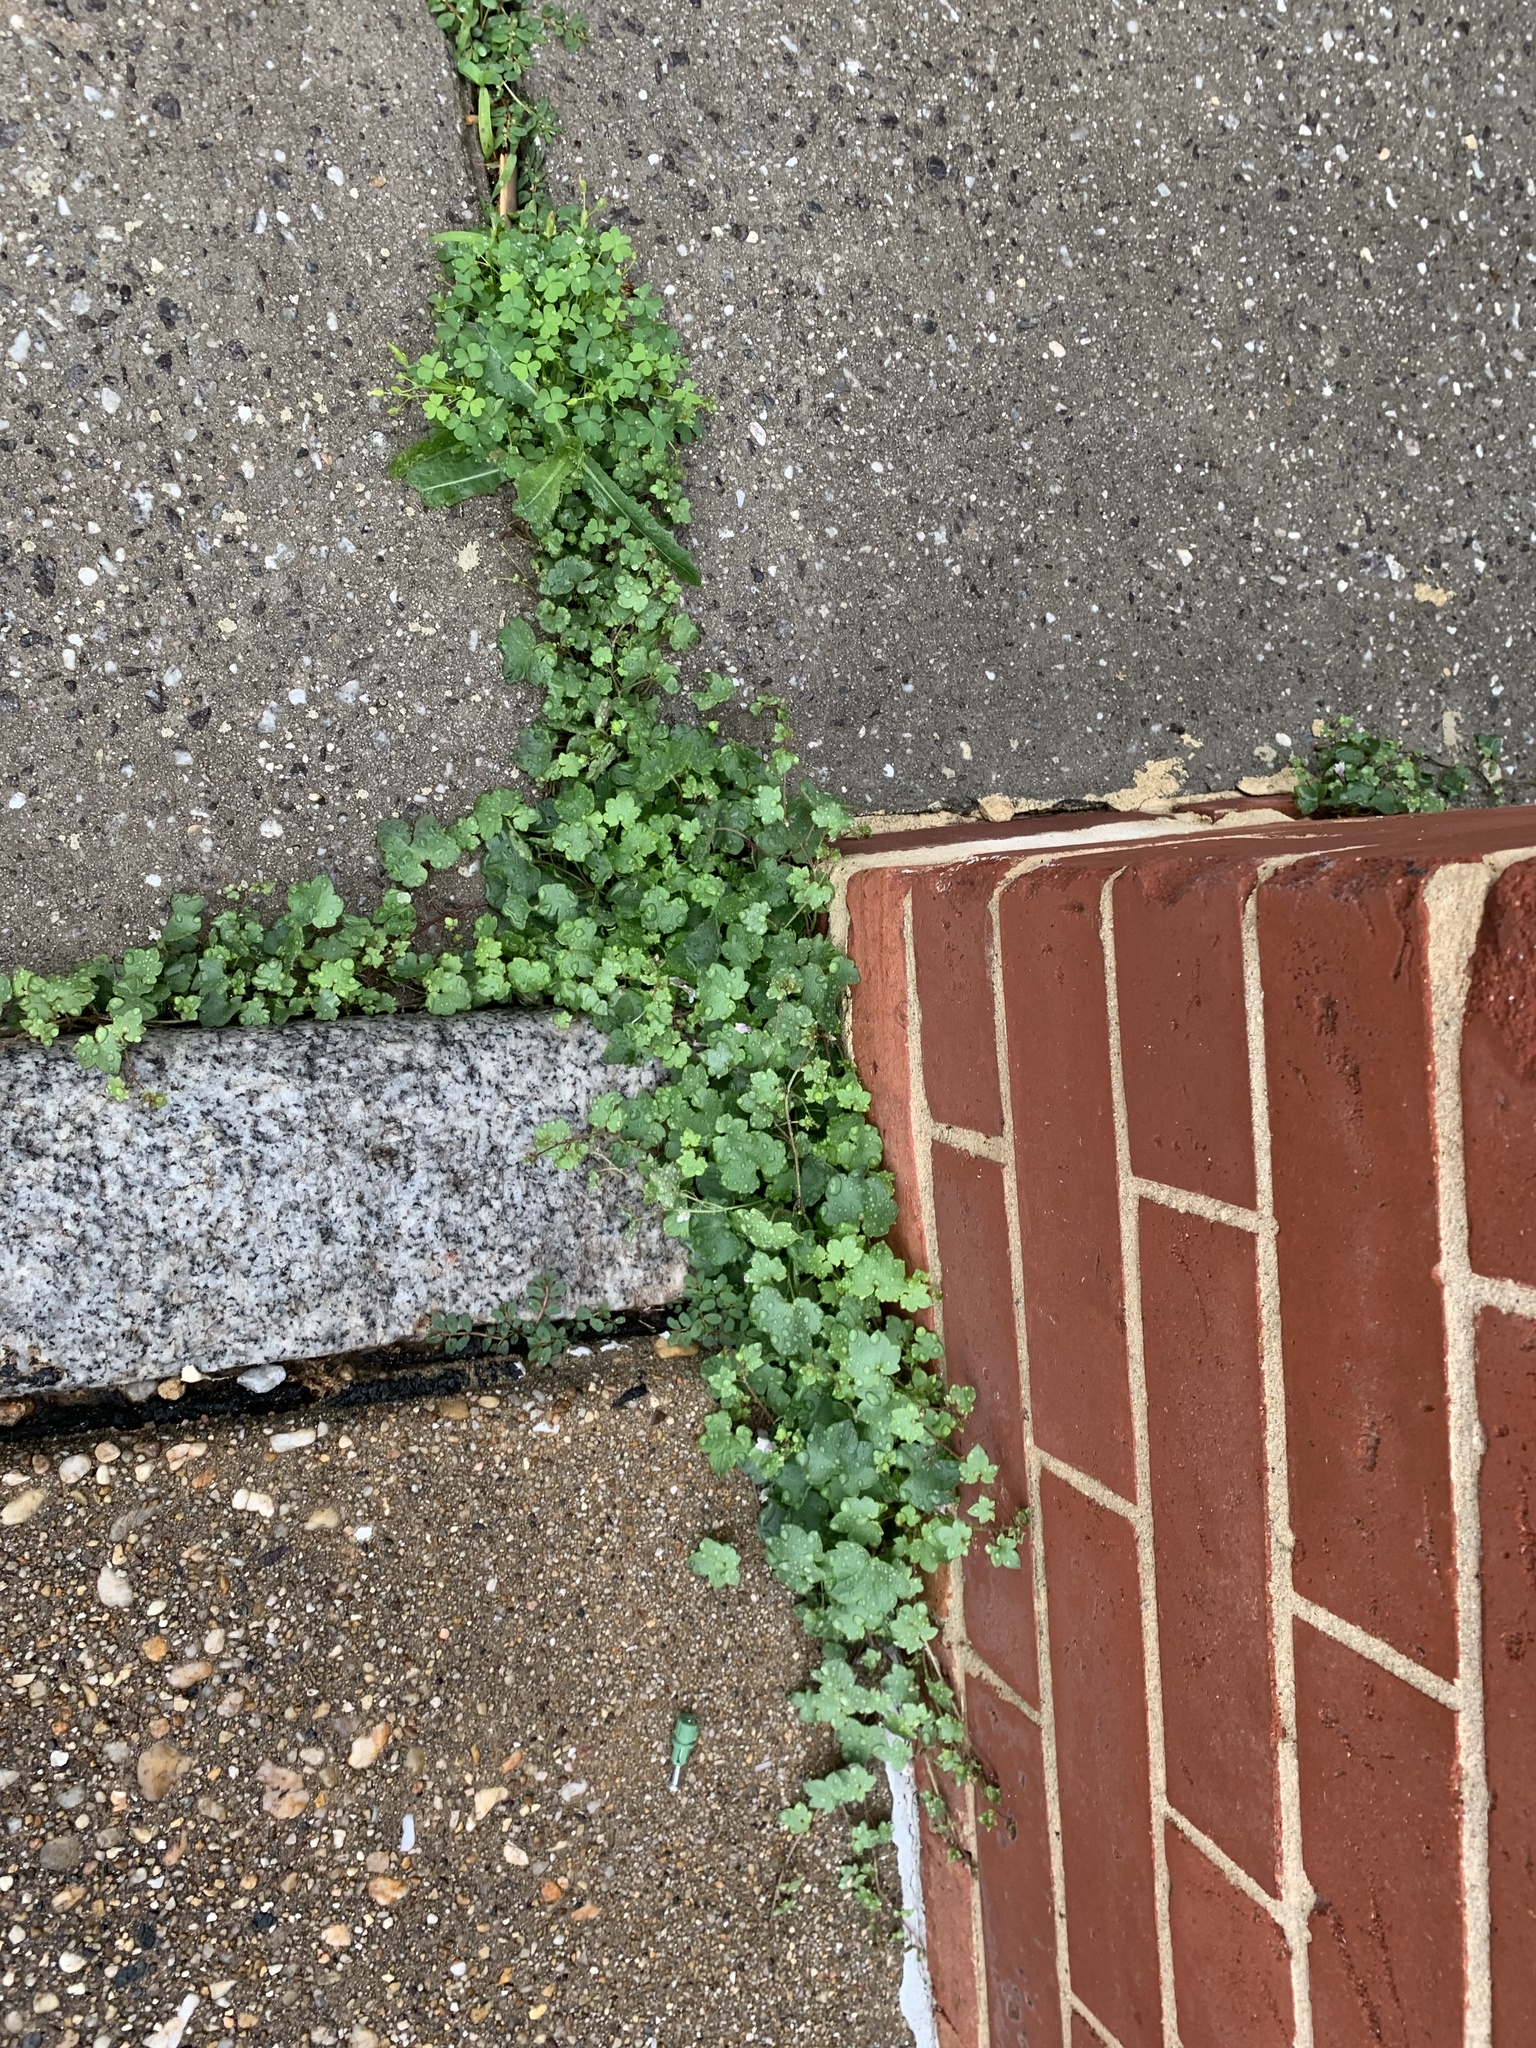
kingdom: Plantae
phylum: Tracheophyta
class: Magnoliopsida
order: Lamiales
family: Plantaginaceae
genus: Cymbalaria
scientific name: Cymbalaria muralis
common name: Ivy-leaved toadflax
